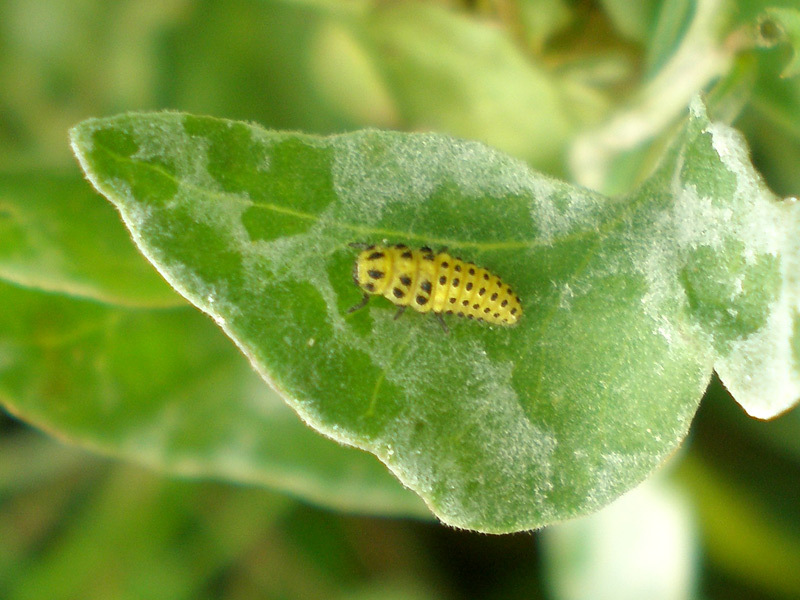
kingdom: Animalia
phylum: Arthropoda
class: Insecta
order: Coleoptera
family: Coccinellidae
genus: Psyllobora
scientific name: Psyllobora vigintiduopunctata
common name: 22-spot ladybird
